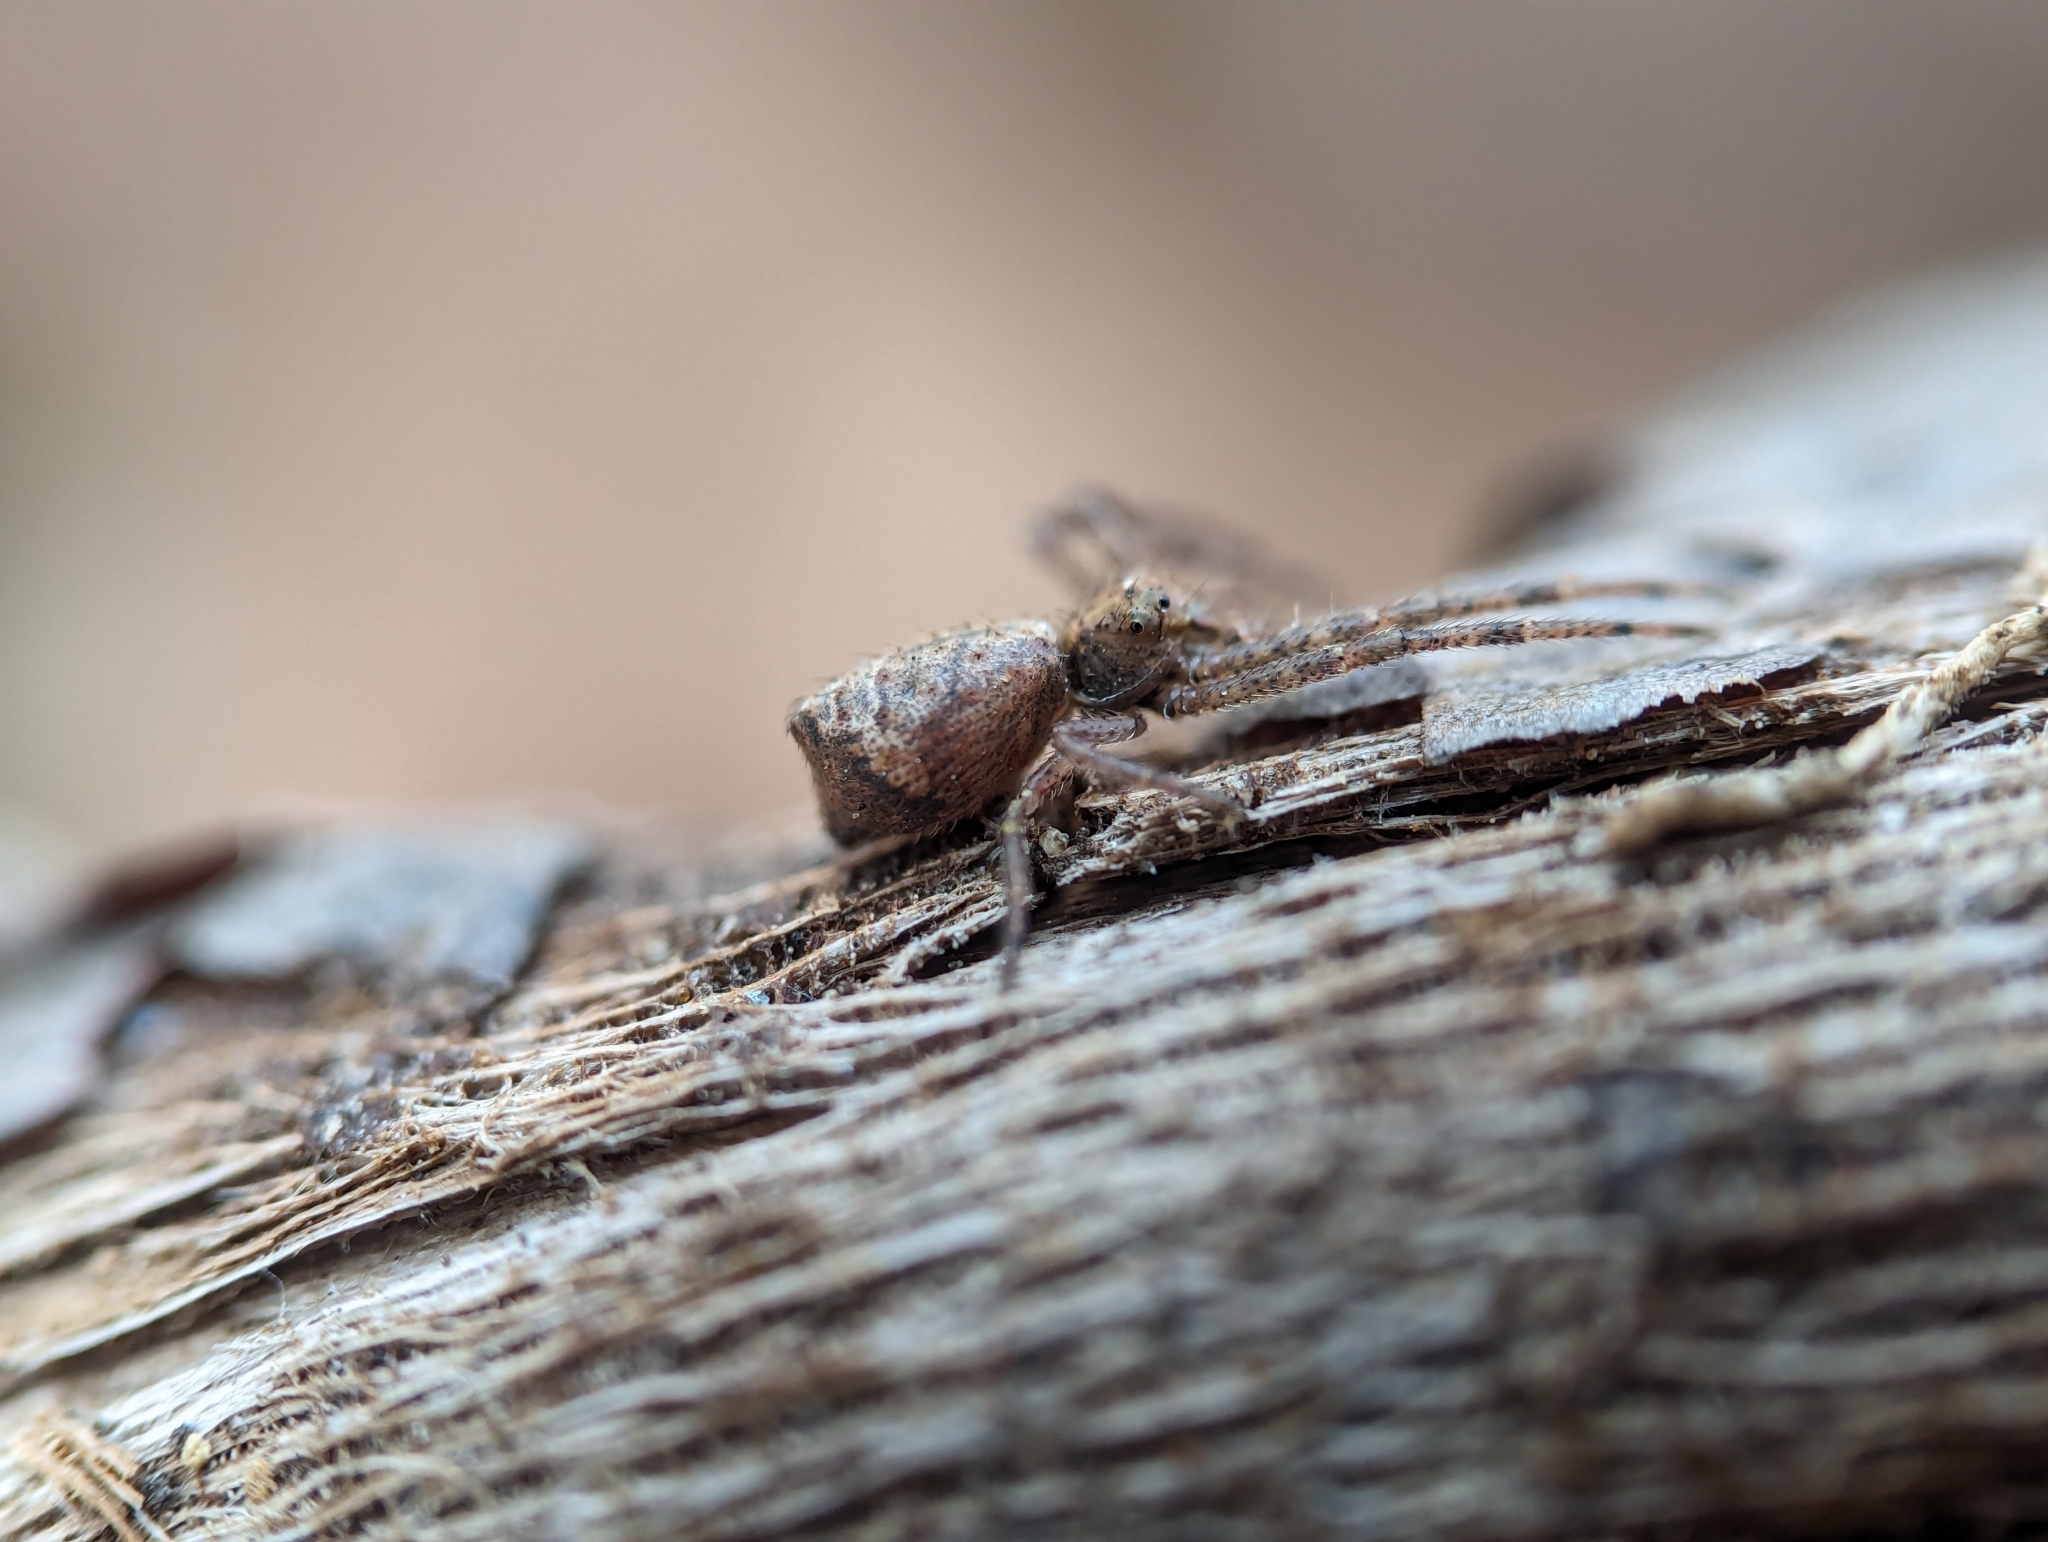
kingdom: Animalia
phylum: Arthropoda
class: Arachnida
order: Araneae
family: Thomisidae
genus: Tmarus
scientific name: Tmarus angulatus
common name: Tuberculated crab spider
